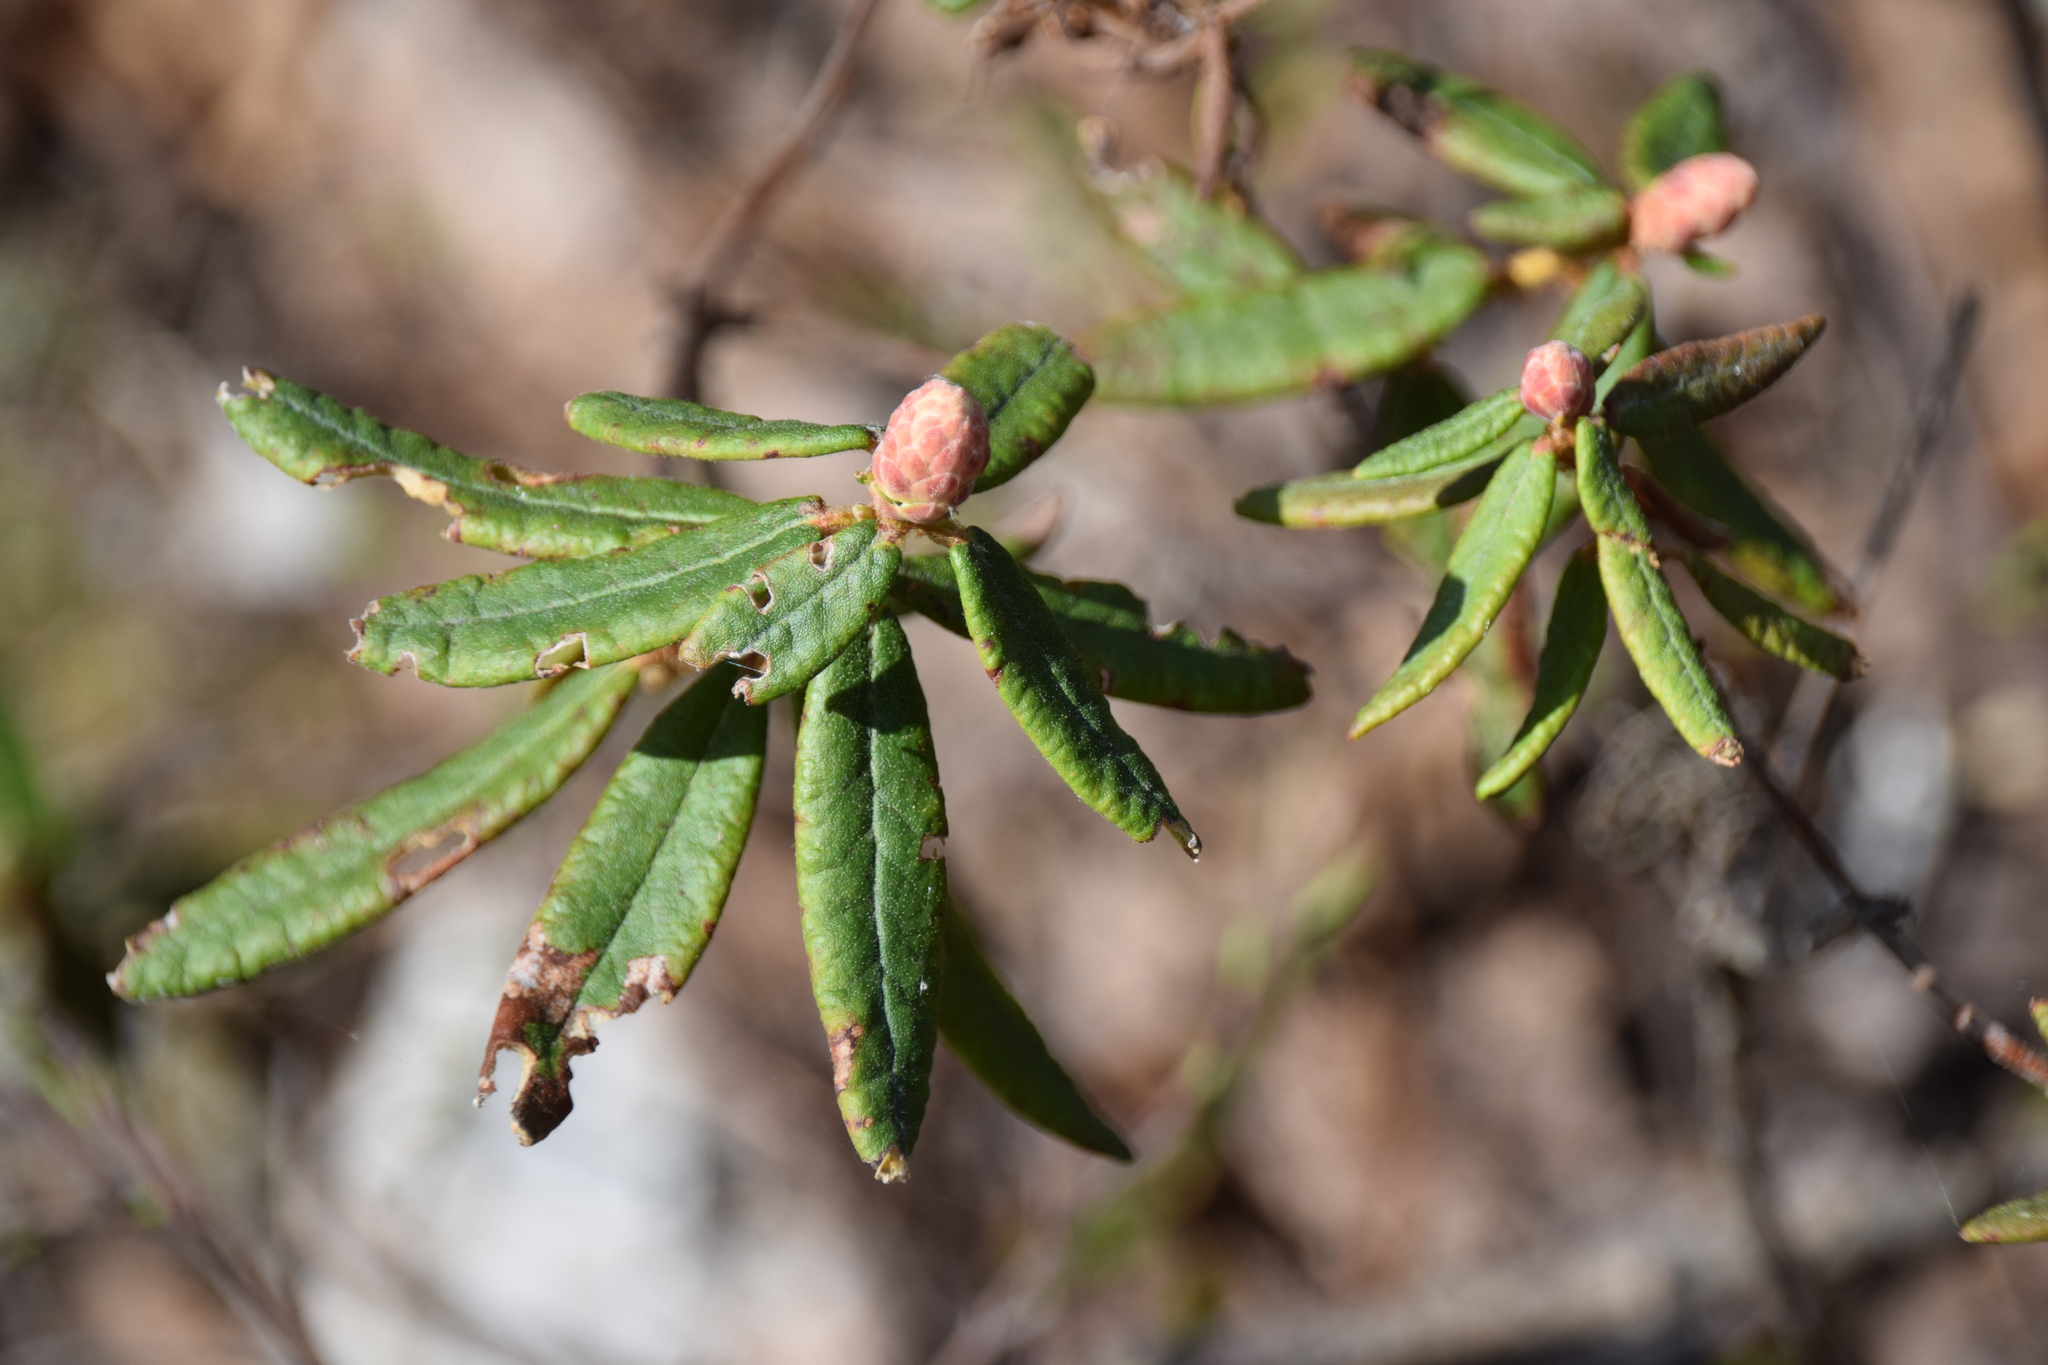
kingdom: Plantae
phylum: Tracheophyta
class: Magnoliopsida
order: Ericales
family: Ericaceae
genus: Rhododendron
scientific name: Rhododendron groenlandicum
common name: Bog labrador tea
